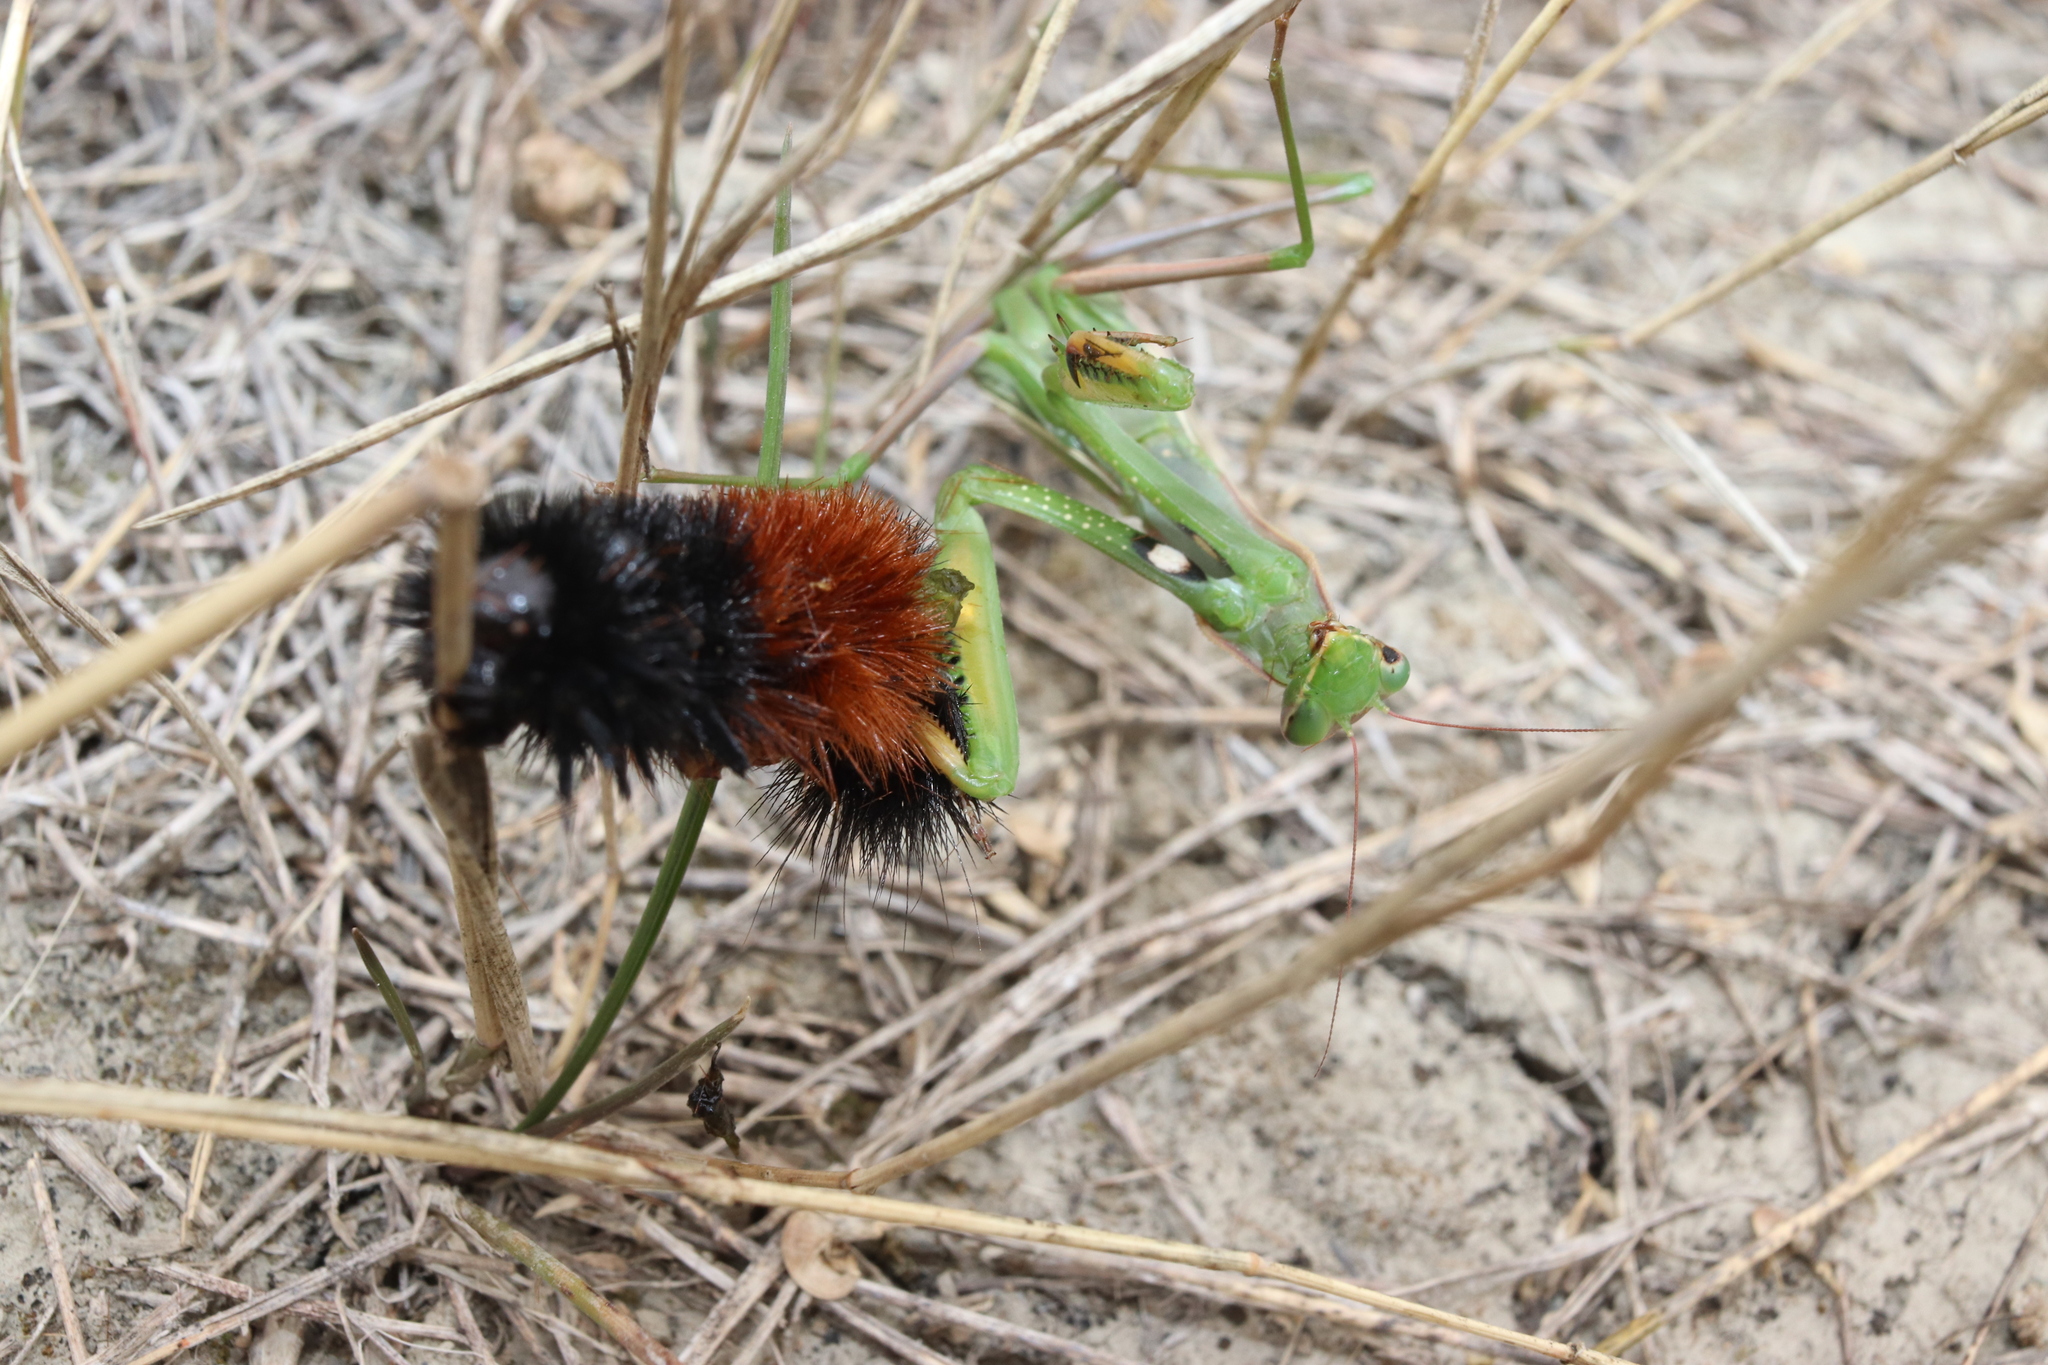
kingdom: Animalia
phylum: Arthropoda
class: Insecta
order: Lepidoptera
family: Erebidae
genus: Pyrrharctia
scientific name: Pyrrharctia isabella
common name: Isabella tiger moth
